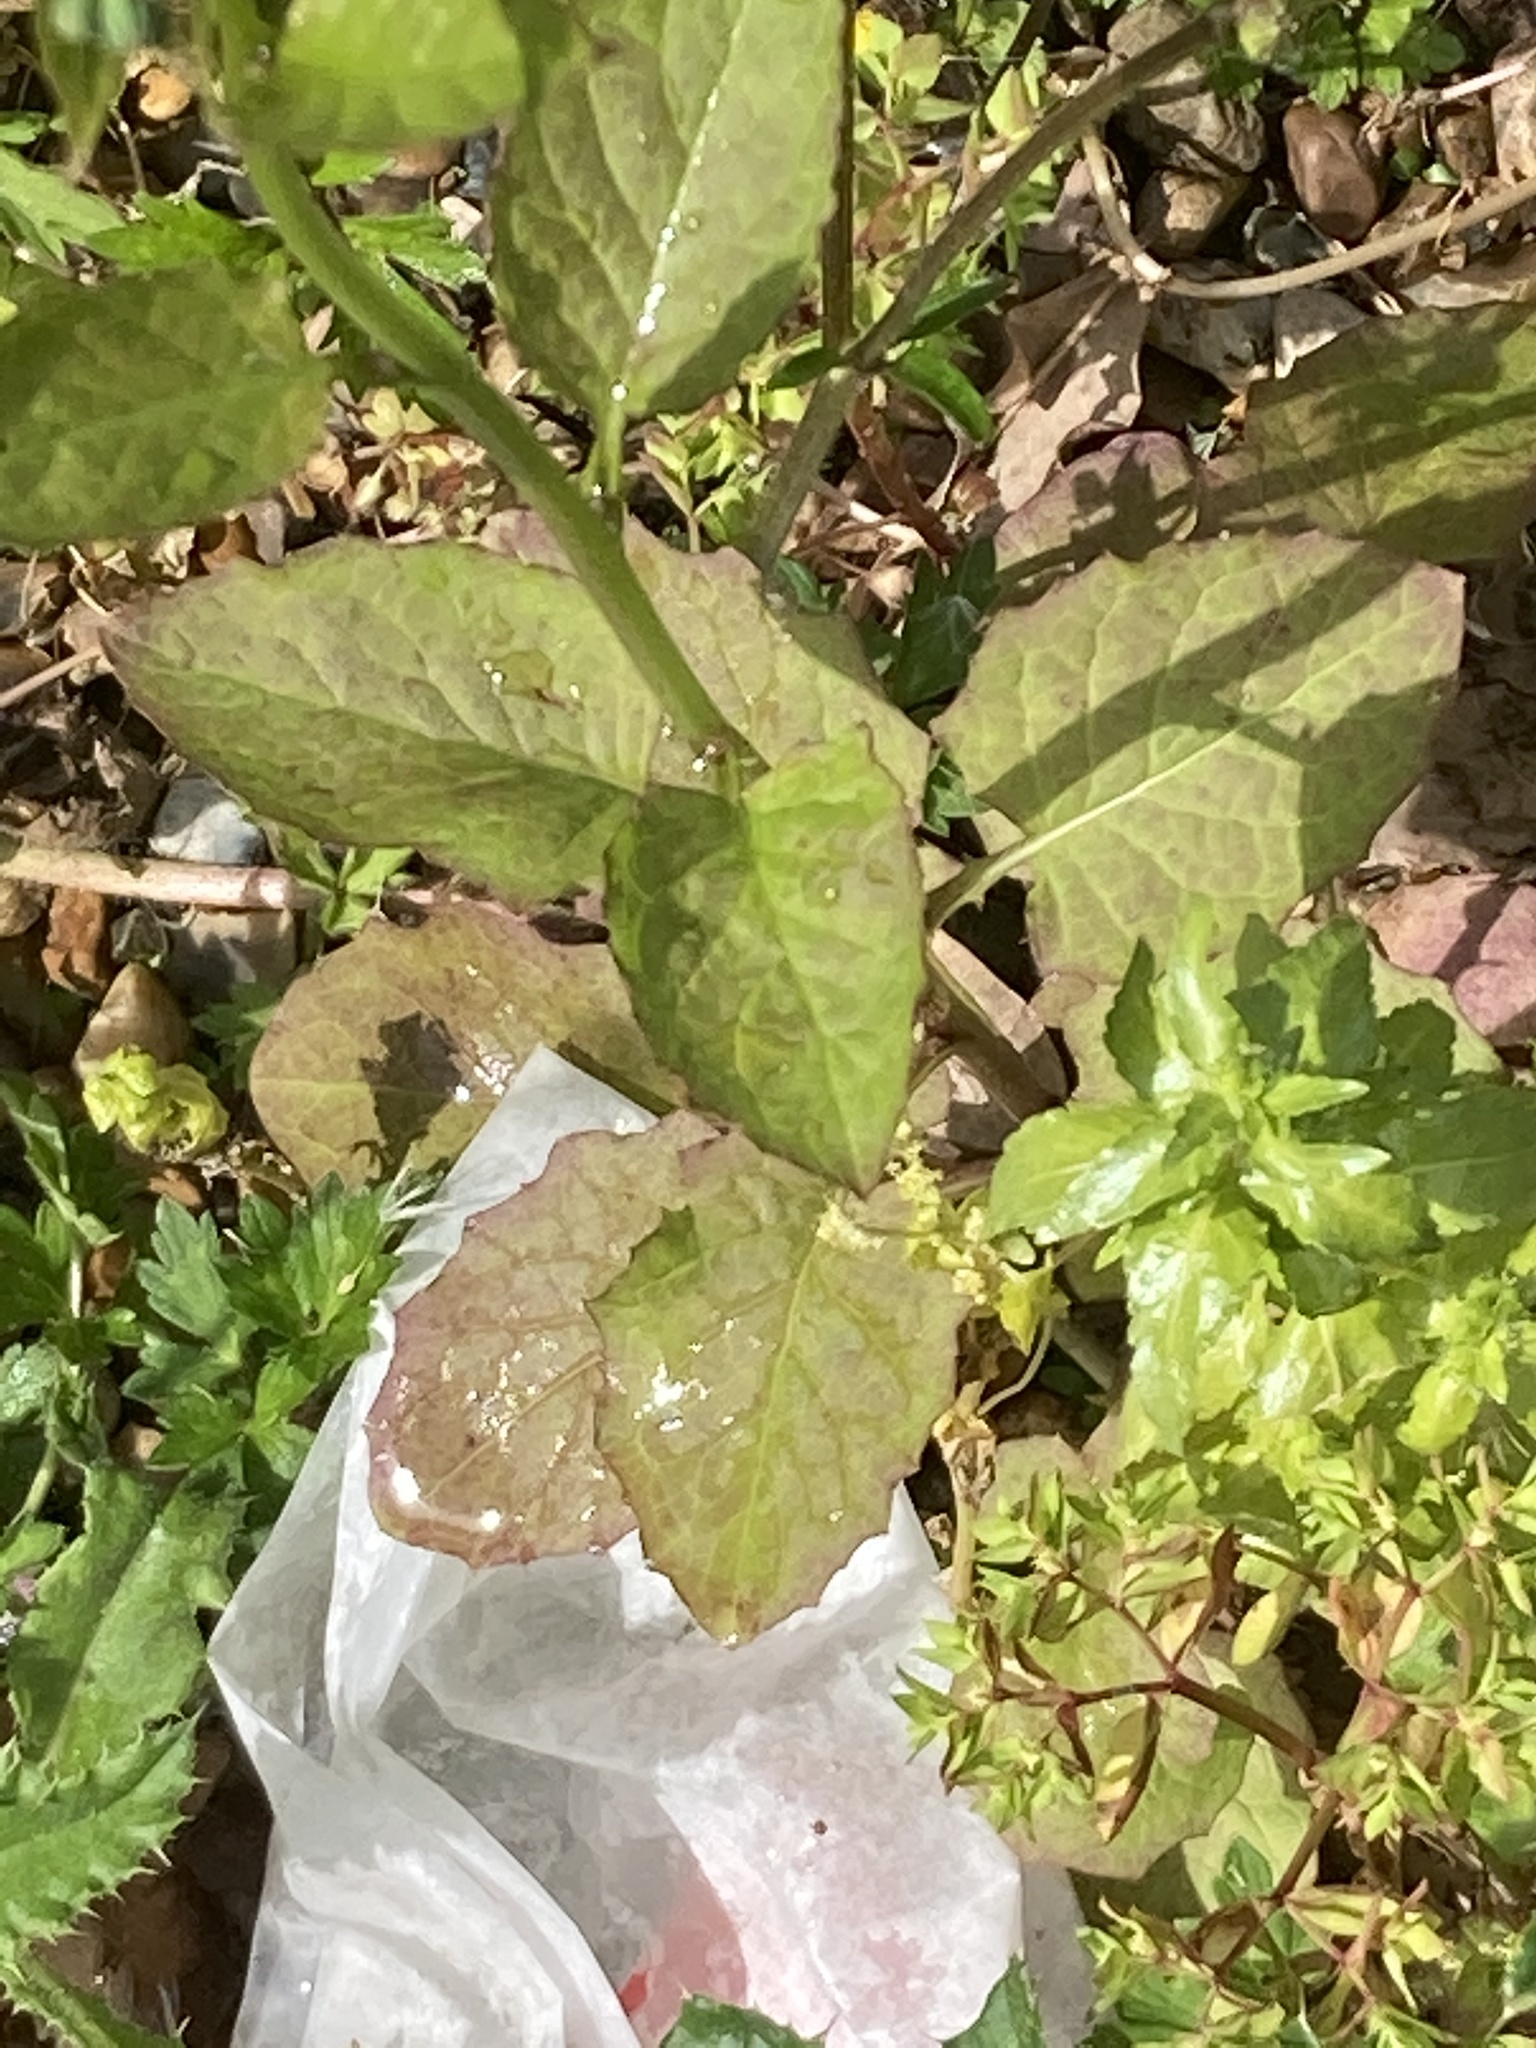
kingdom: Plantae
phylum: Tracheophyta
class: Magnoliopsida
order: Asterales
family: Asteraceae
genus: Lapsana
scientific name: Lapsana communis
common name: Nipplewort
